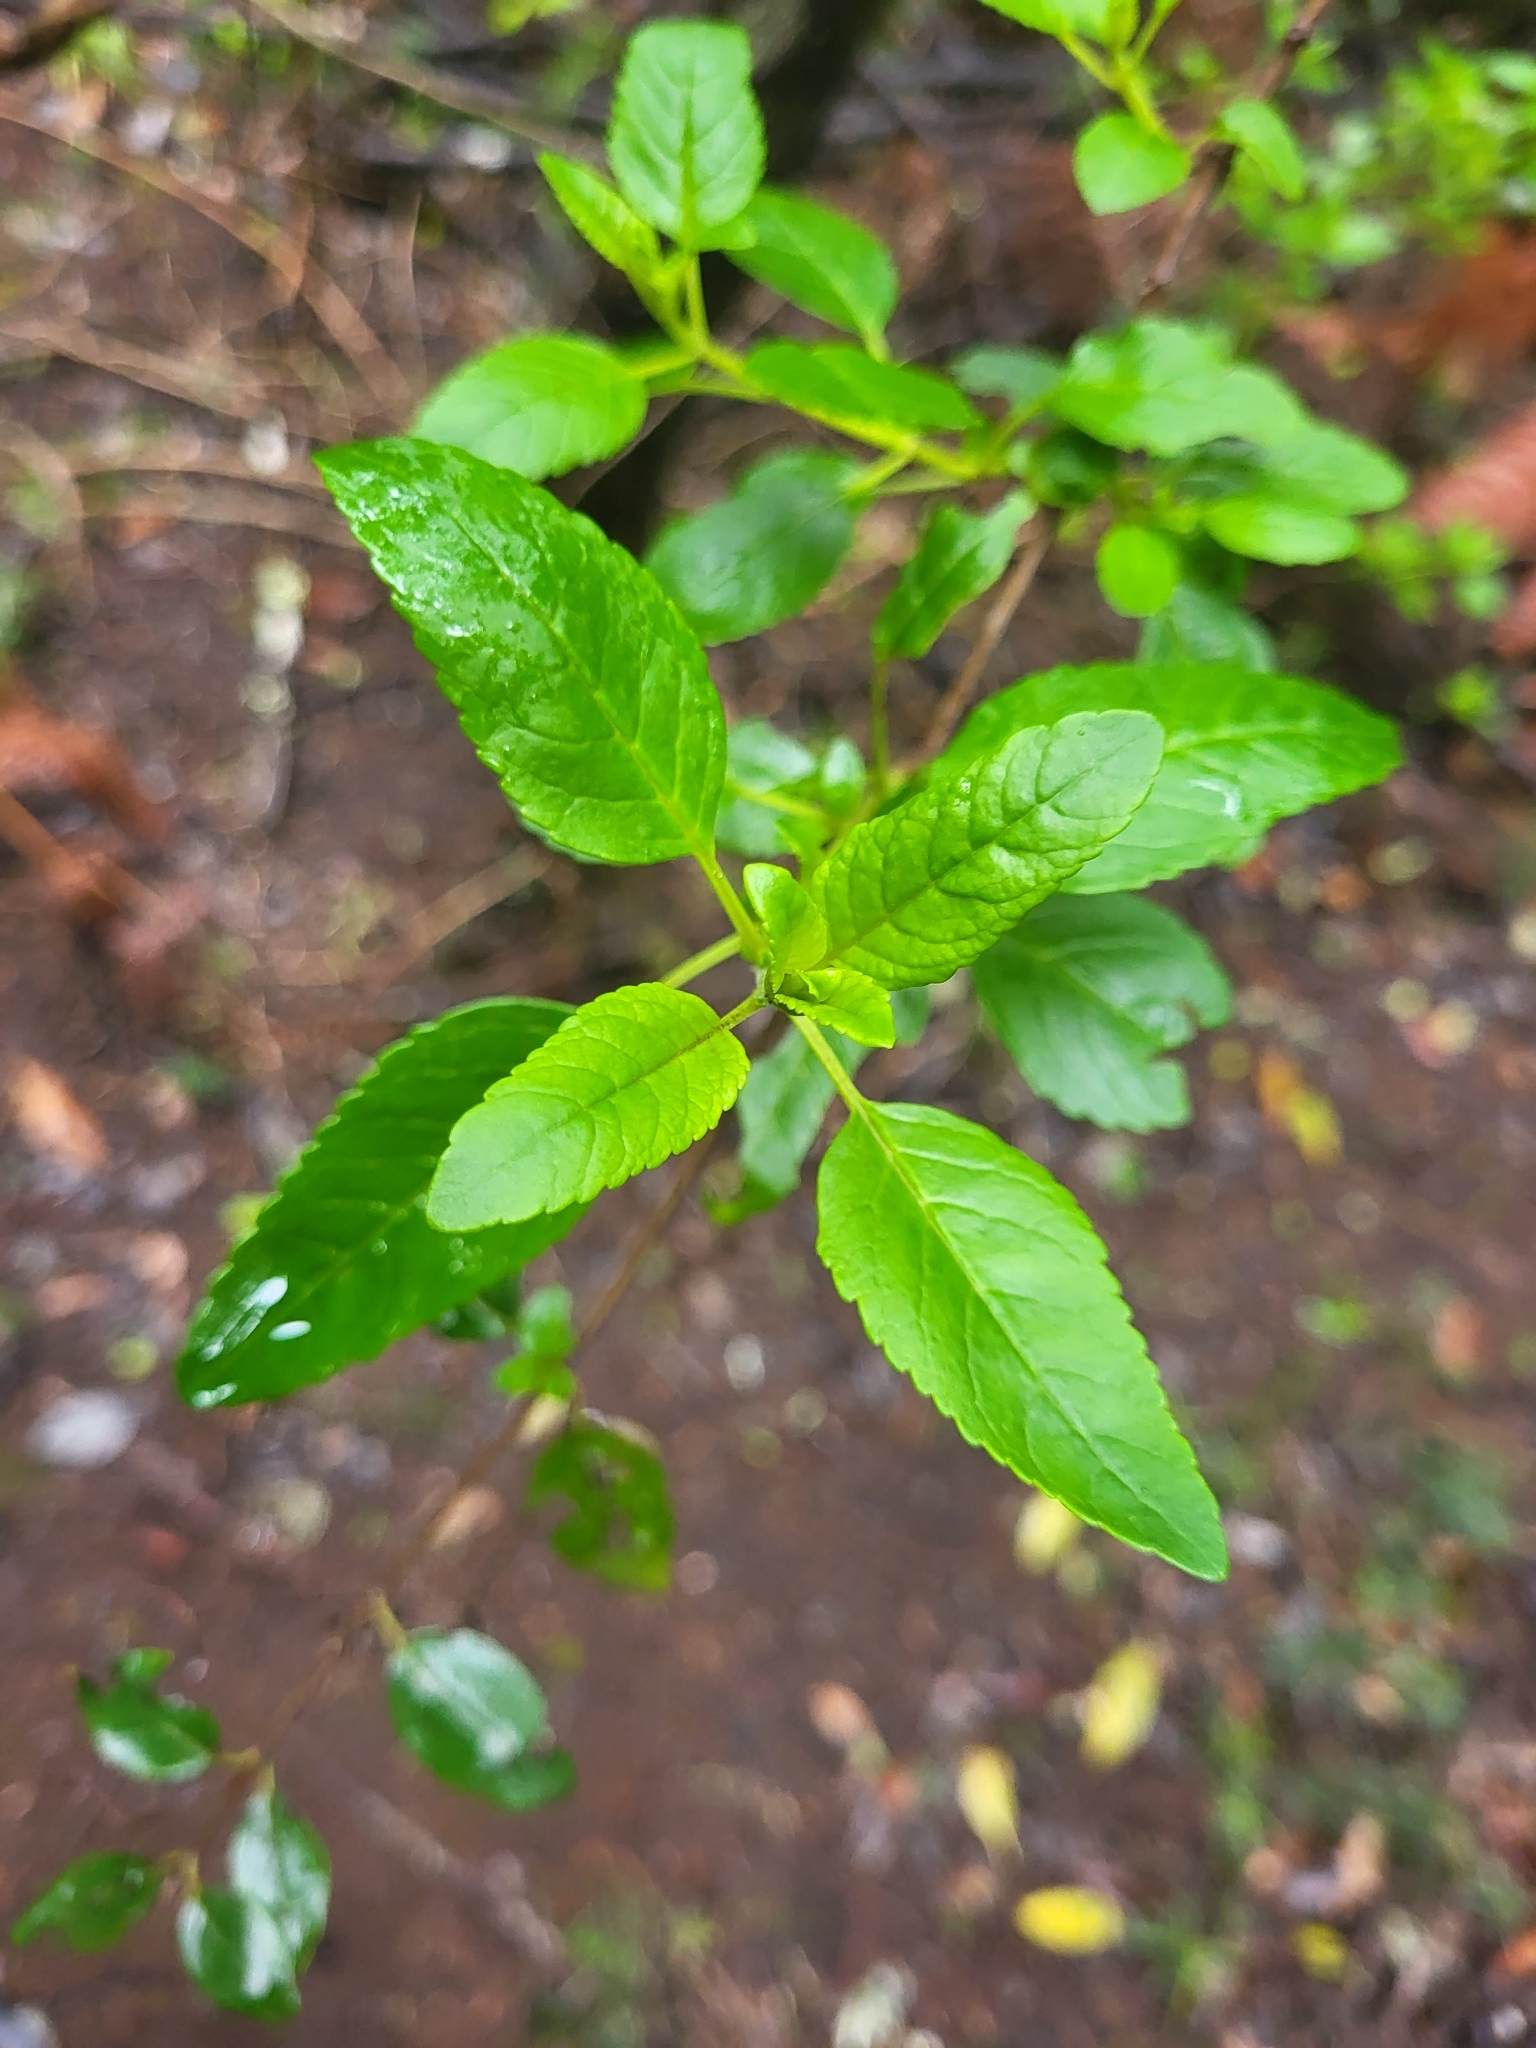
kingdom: Plantae
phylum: Tracheophyta
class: Magnoliopsida
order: Lamiales
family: Lamiaceae
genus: Bystropogon
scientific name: Bystropogon canariensis
